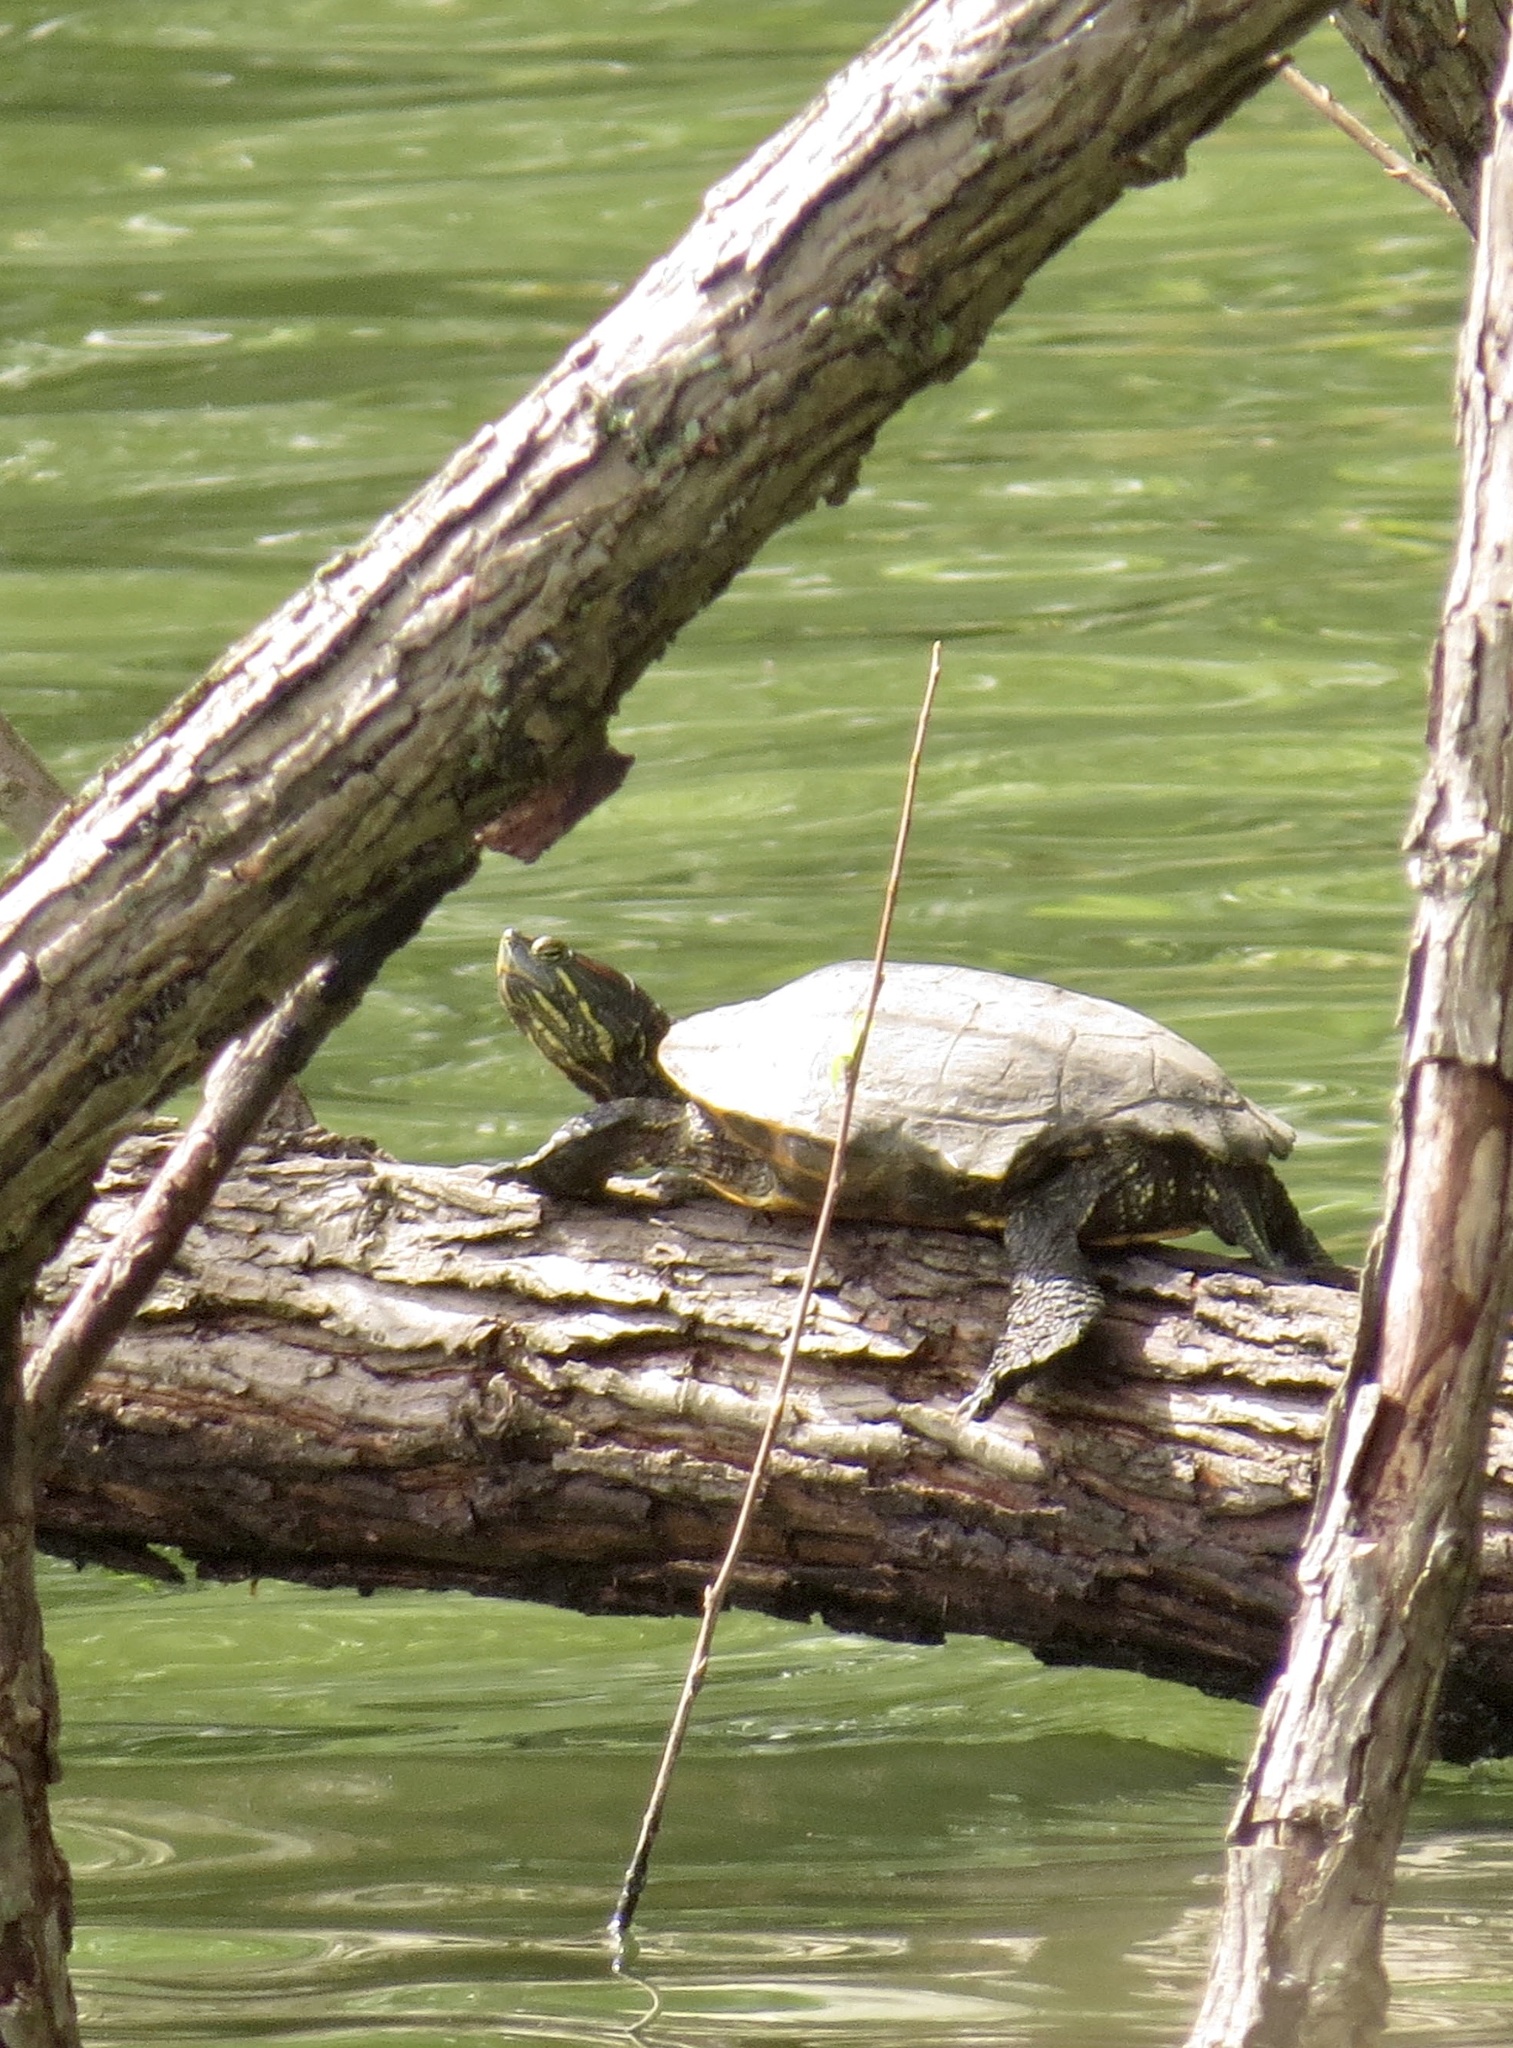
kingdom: Animalia
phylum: Chordata
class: Testudines
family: Emydidae
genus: Trachemys
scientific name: Trachemys scripta
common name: Slider
